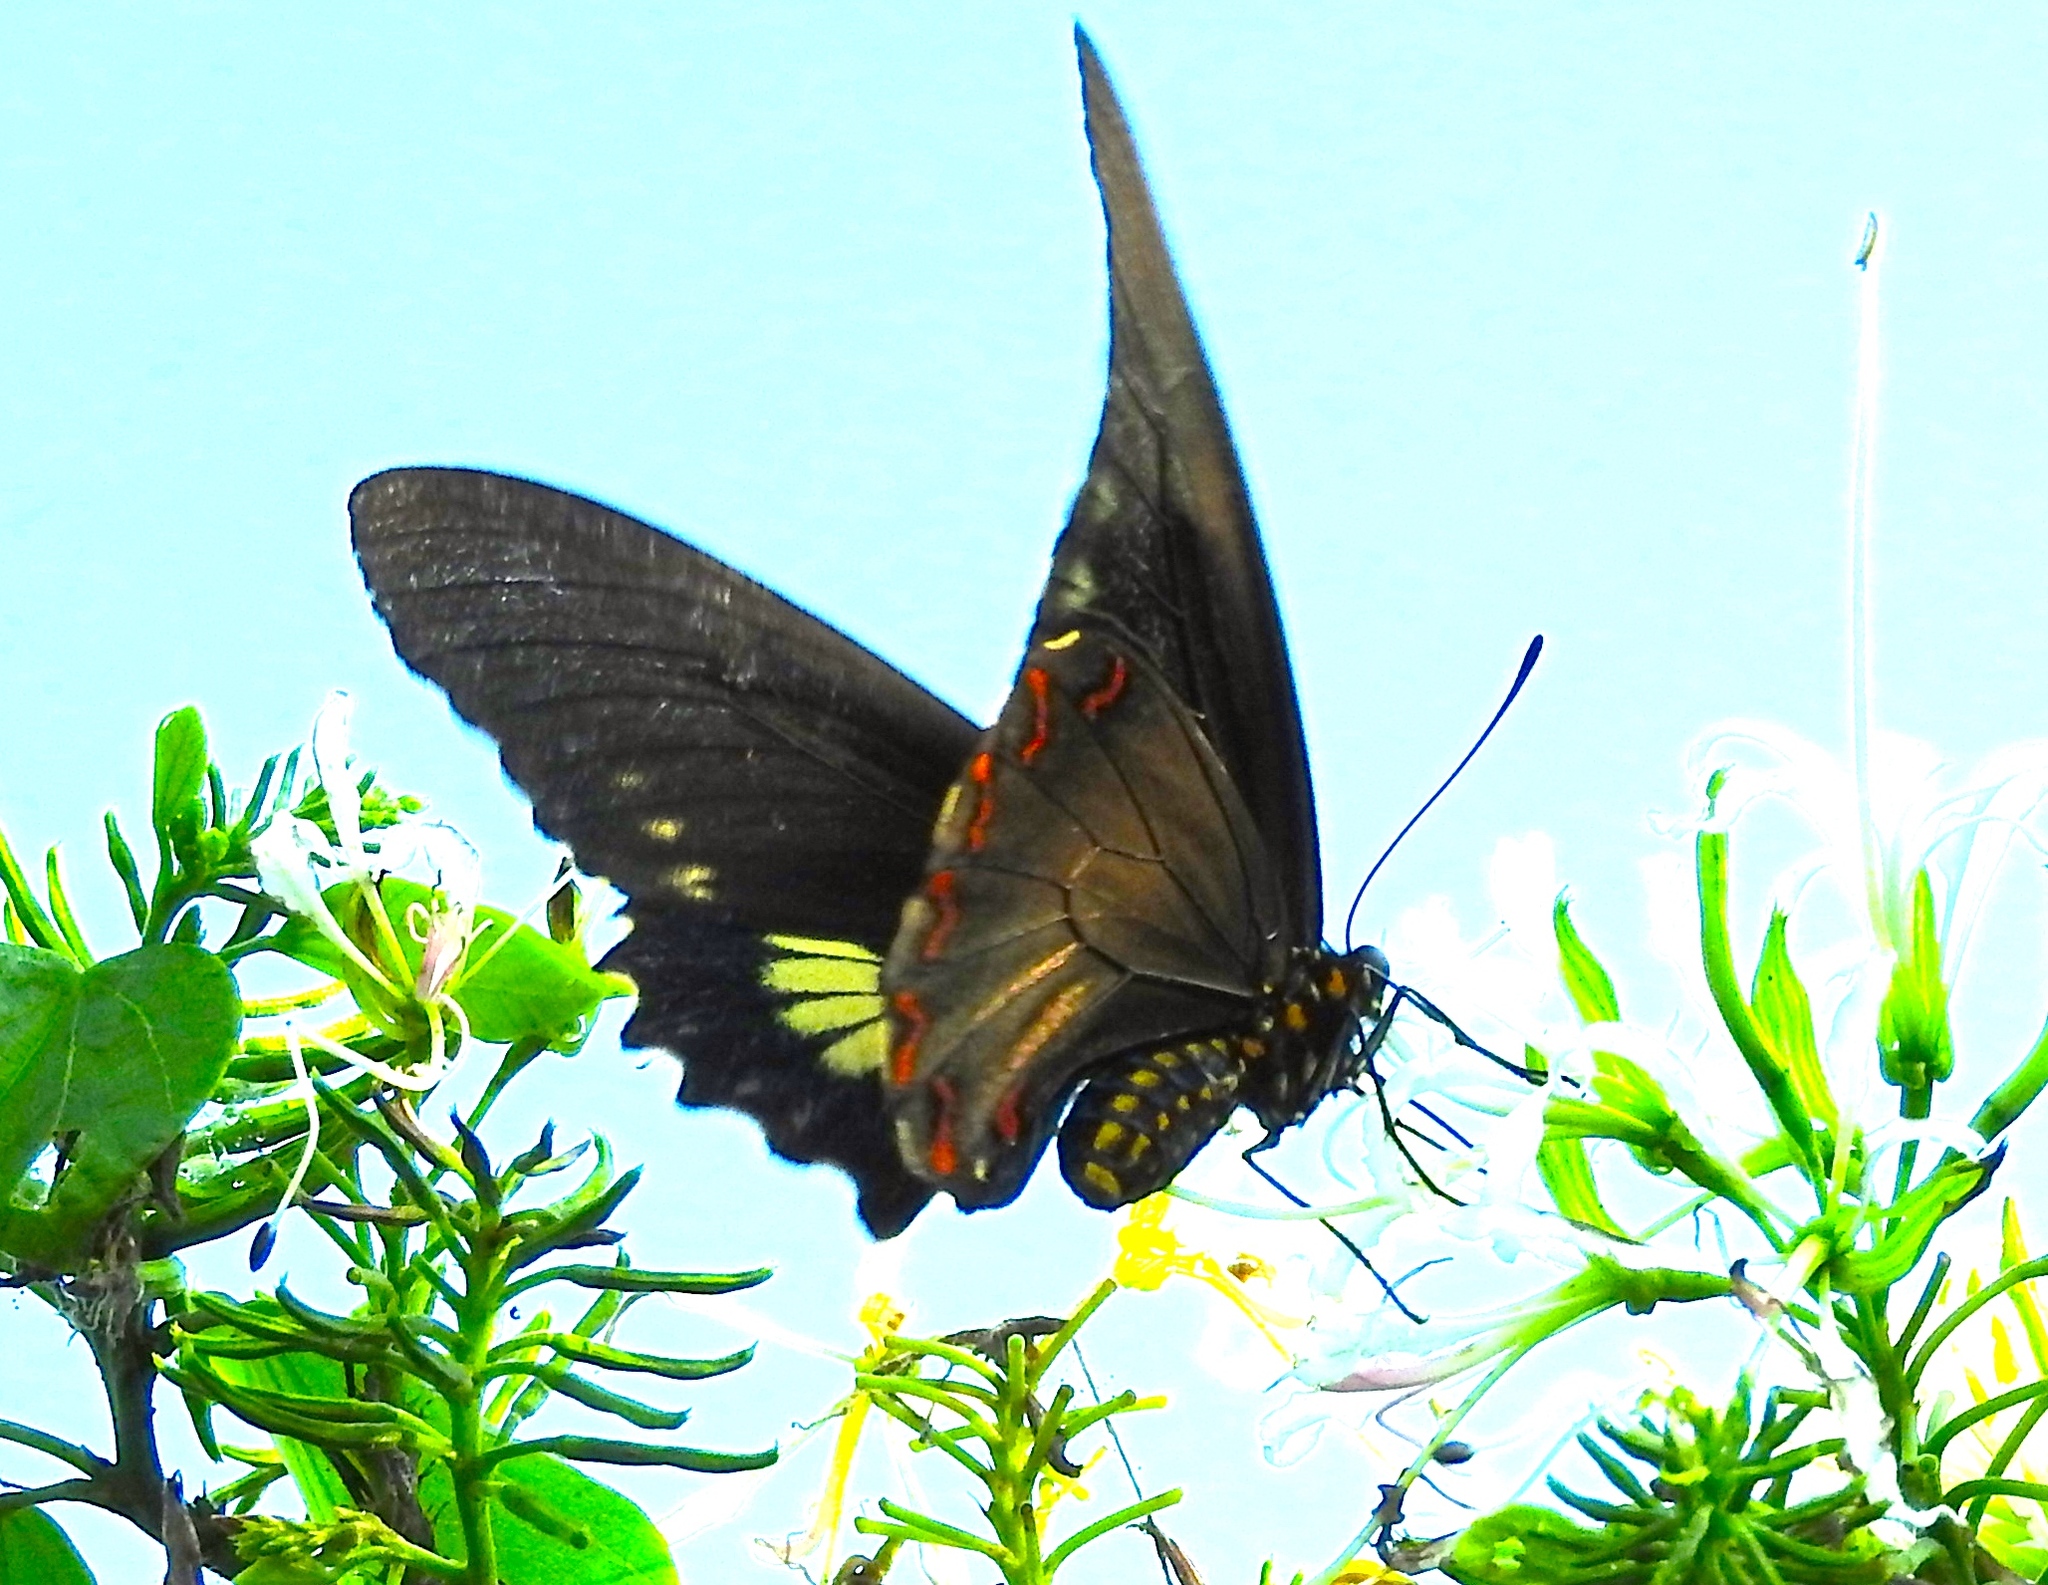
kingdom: Animalia
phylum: Arthropoda
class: Insecta
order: Lepidoptera
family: Papilionidae
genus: Battus
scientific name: Battus laodamas
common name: Green-patch swallowtail
